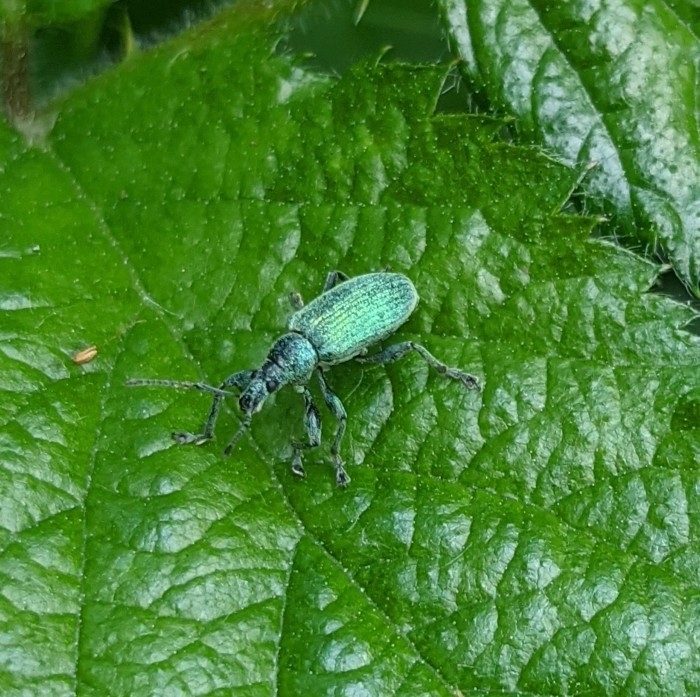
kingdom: Animalia
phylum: Arthropoda
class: Insecta
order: Coleoptera
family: Curculionidae
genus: Phyllobius
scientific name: Phyllobius pomaceus
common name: Green nettle weevil
